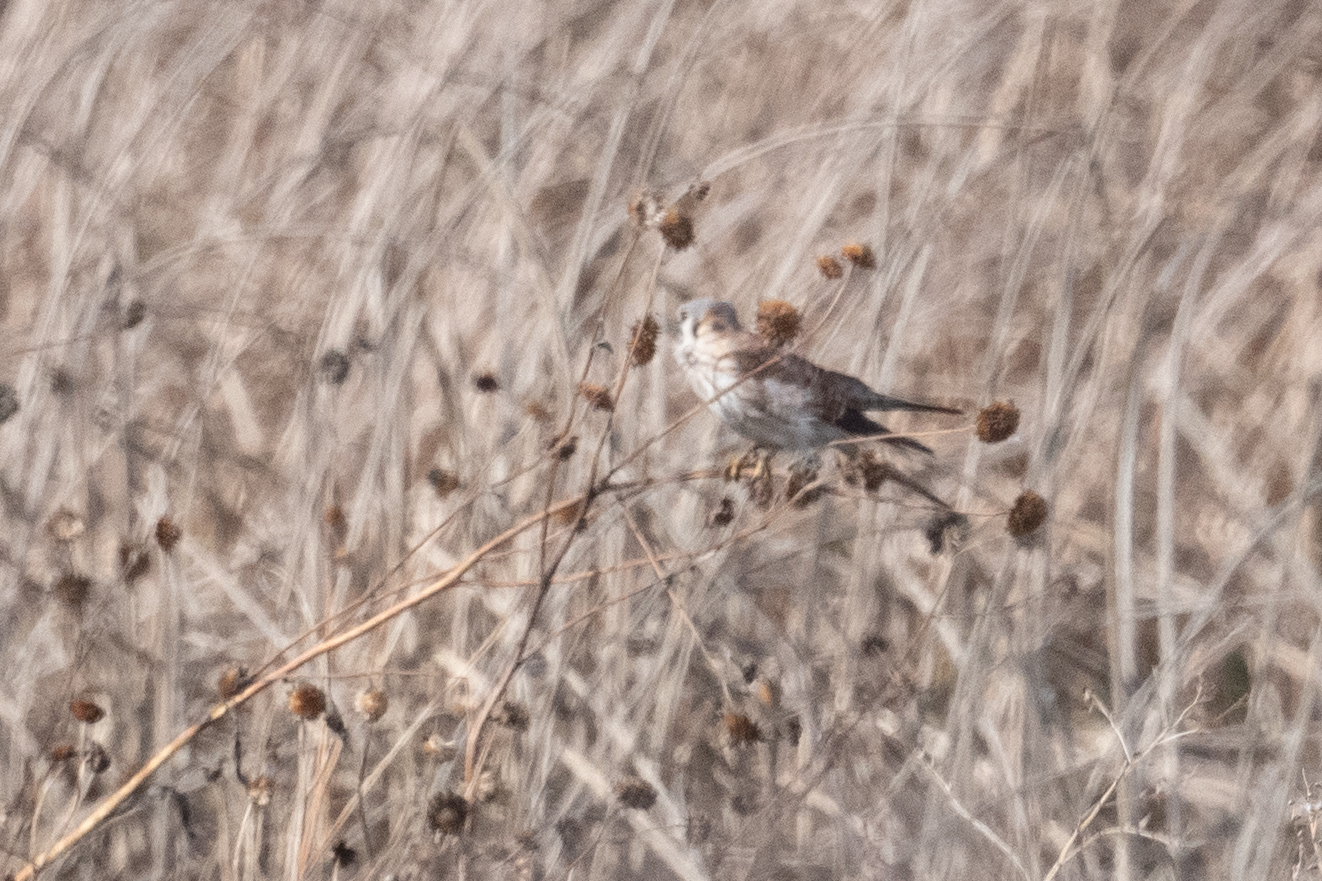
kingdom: Animalia
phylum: Chordata
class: Aves
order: Falconiformes
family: Falconidae
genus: Falco
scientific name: Falco sparverius
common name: American kestrel
